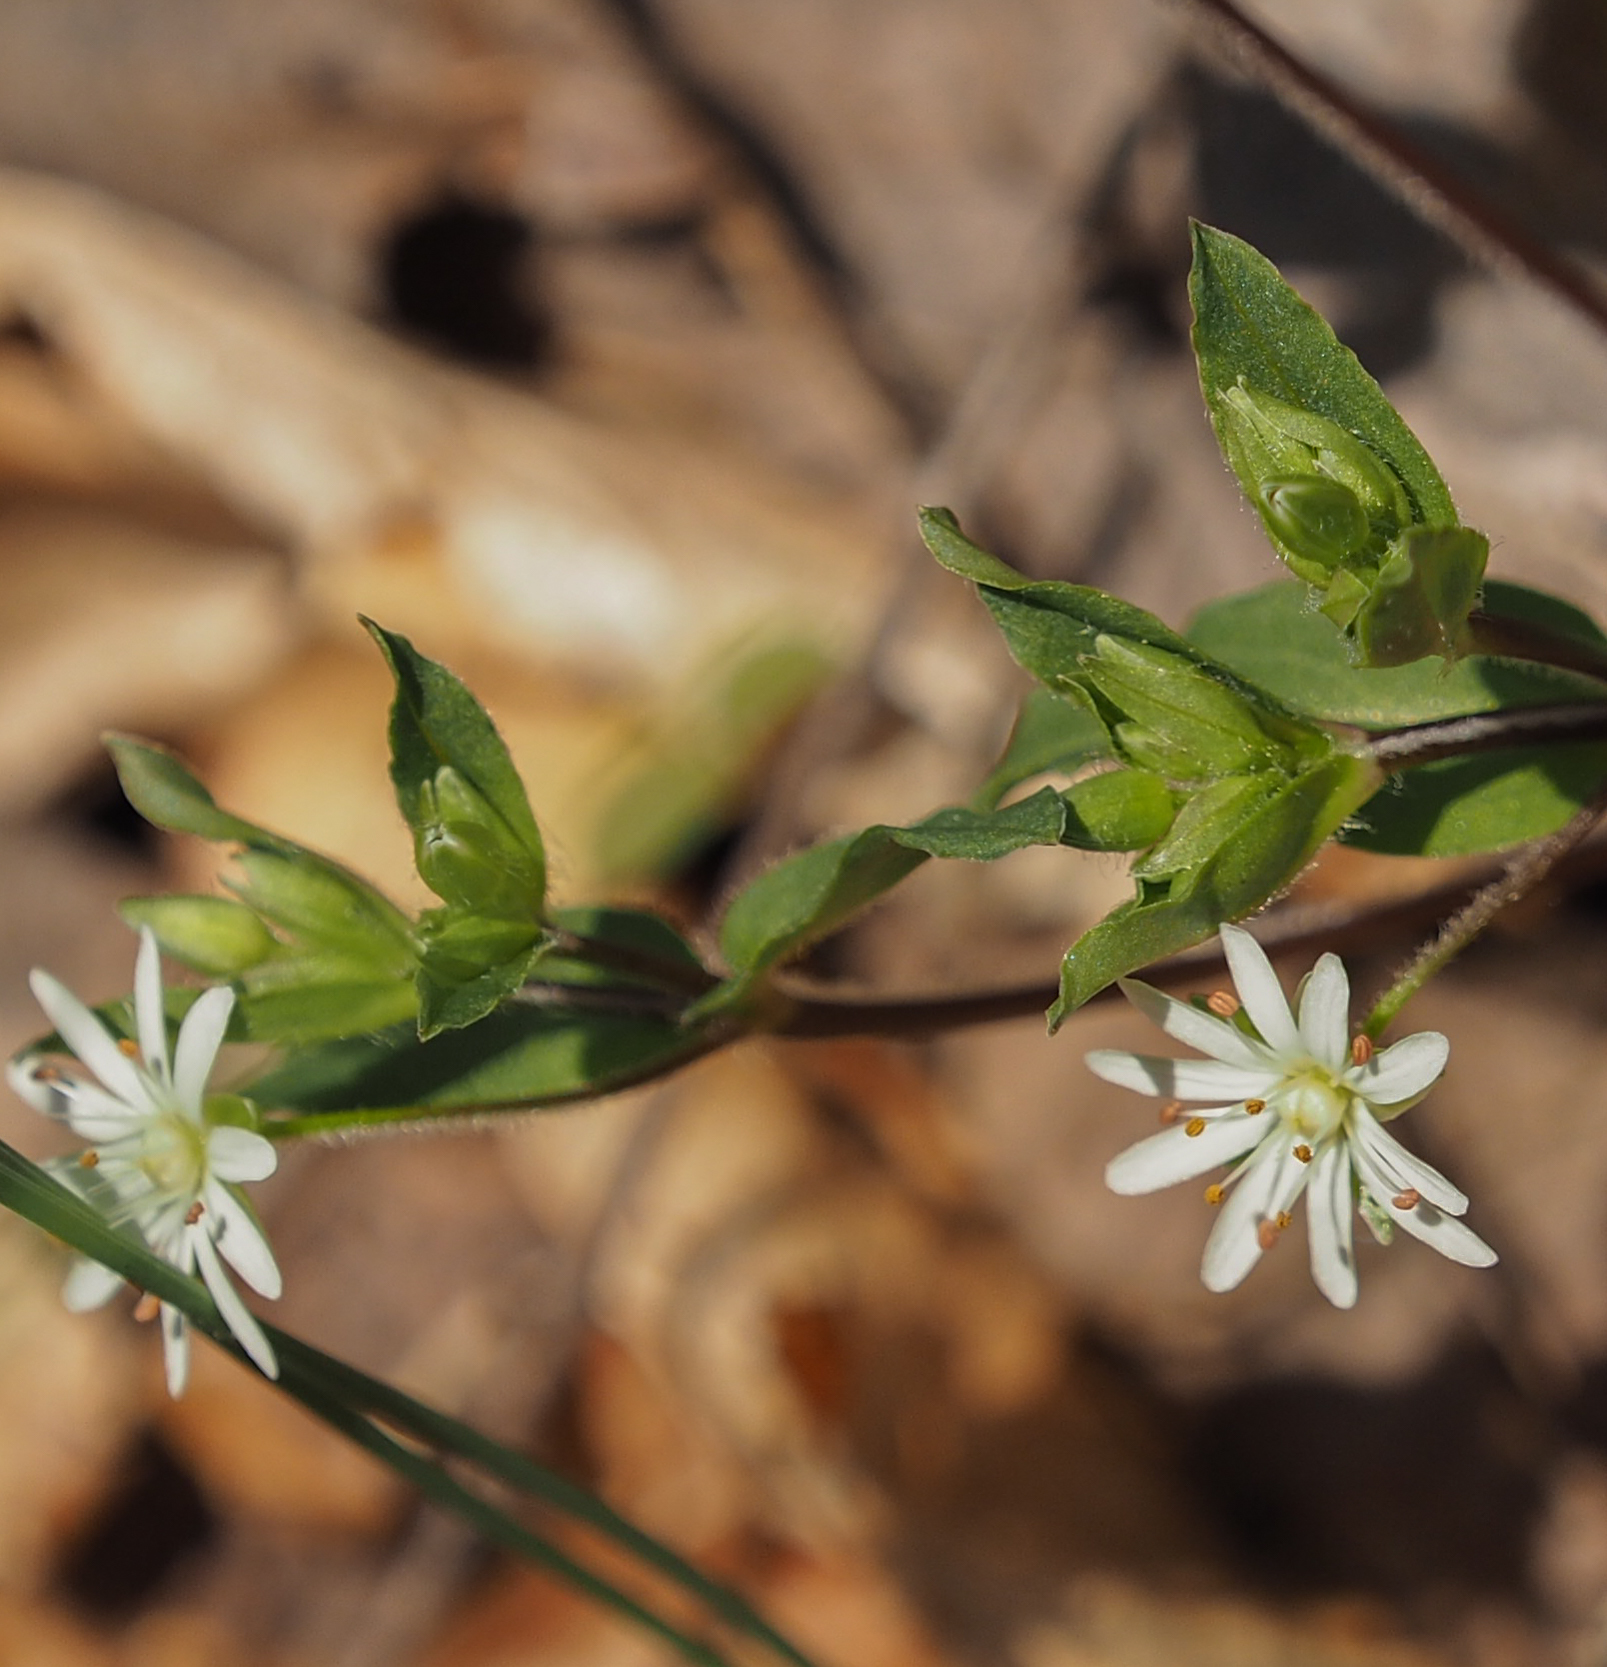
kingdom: Plantae
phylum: Tracheophyta
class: Magnoliopsida
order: Caryophyllales
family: Caryophyllaceae
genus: Stellaria
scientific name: Stellaria pubera
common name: Star chickweed
